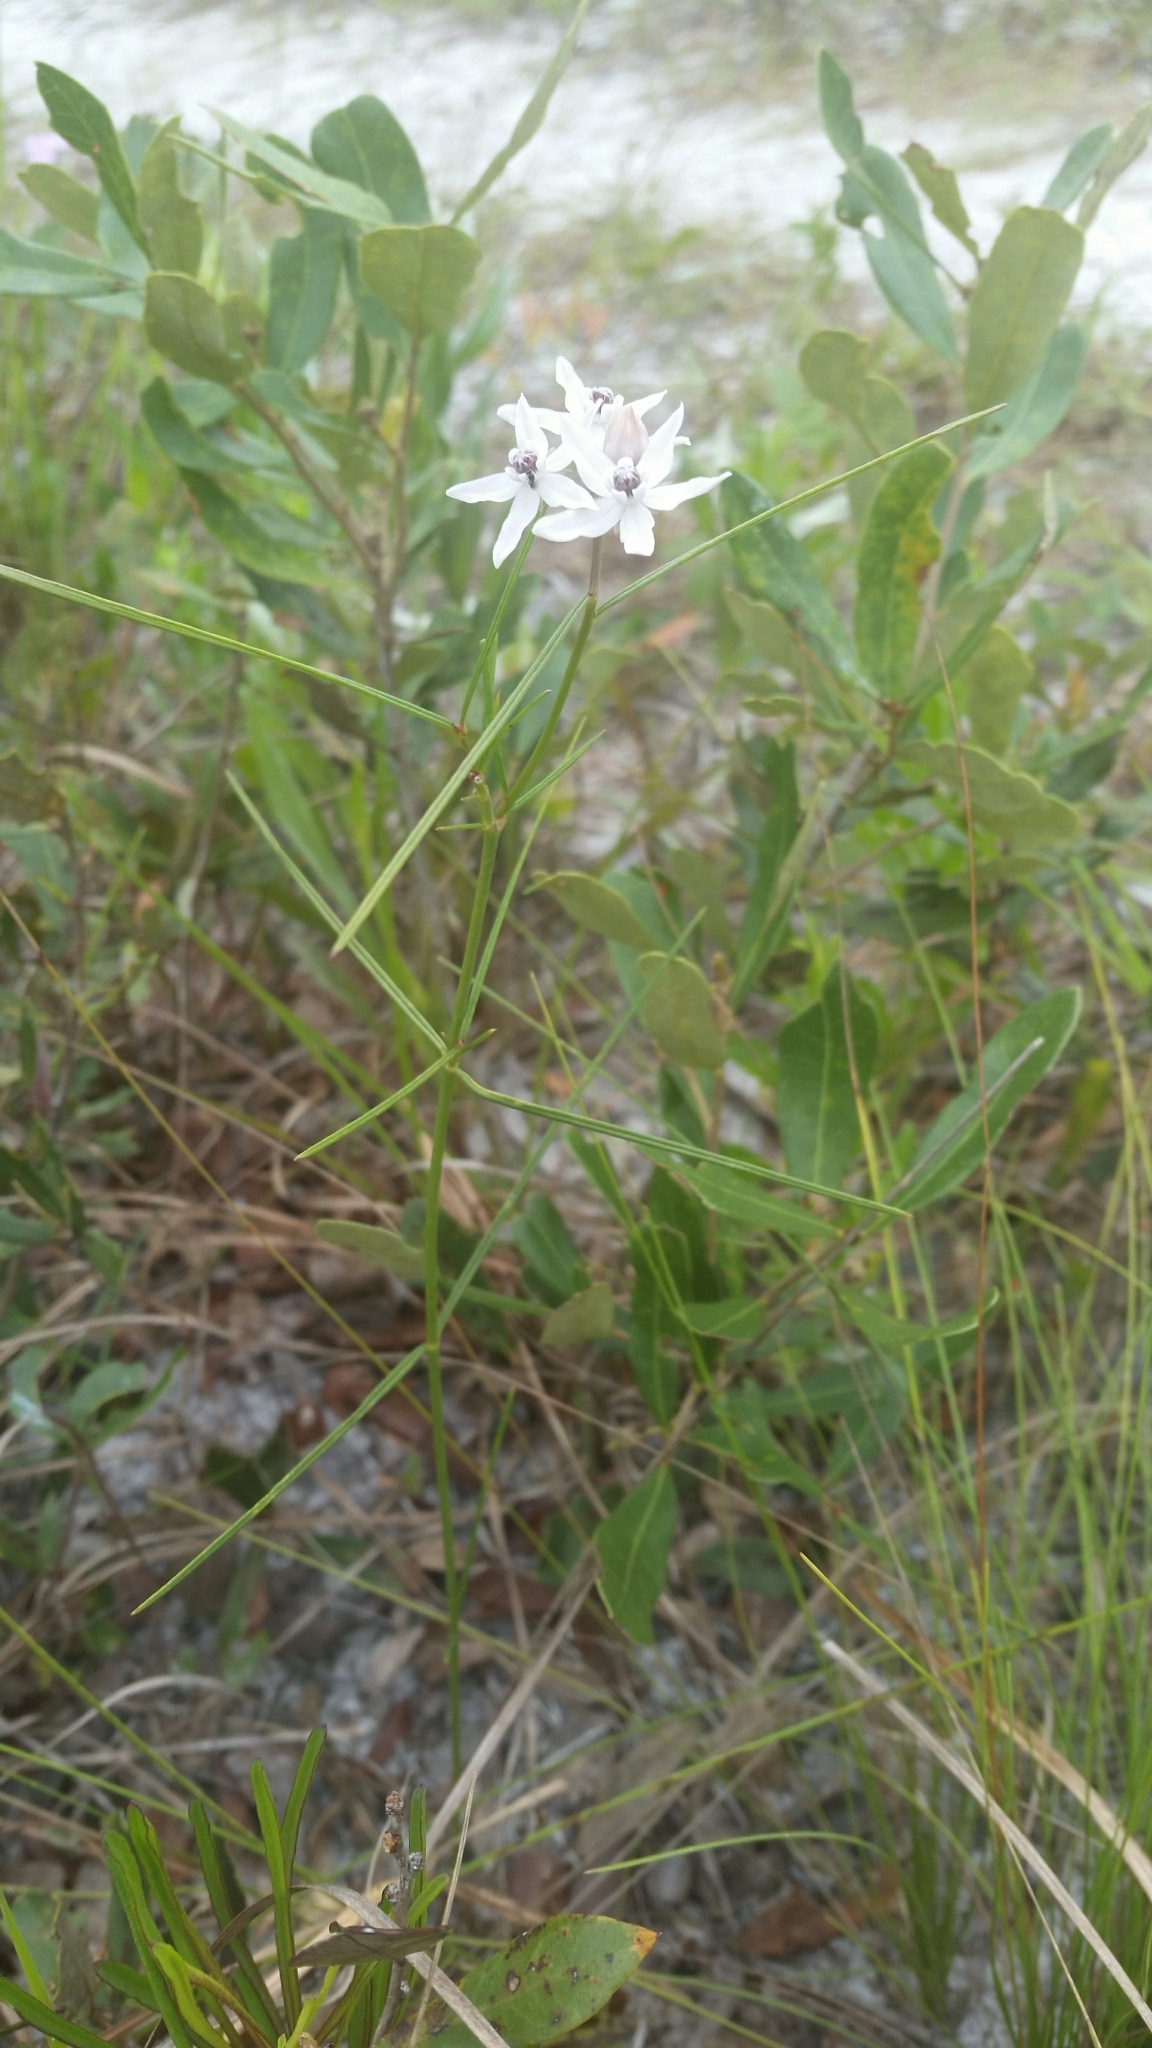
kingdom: Plantae
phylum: Tracheophyta
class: Magnoliopsida
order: Gentianales
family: Apocynaceae
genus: Asclepias
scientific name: Asclepias feayi
